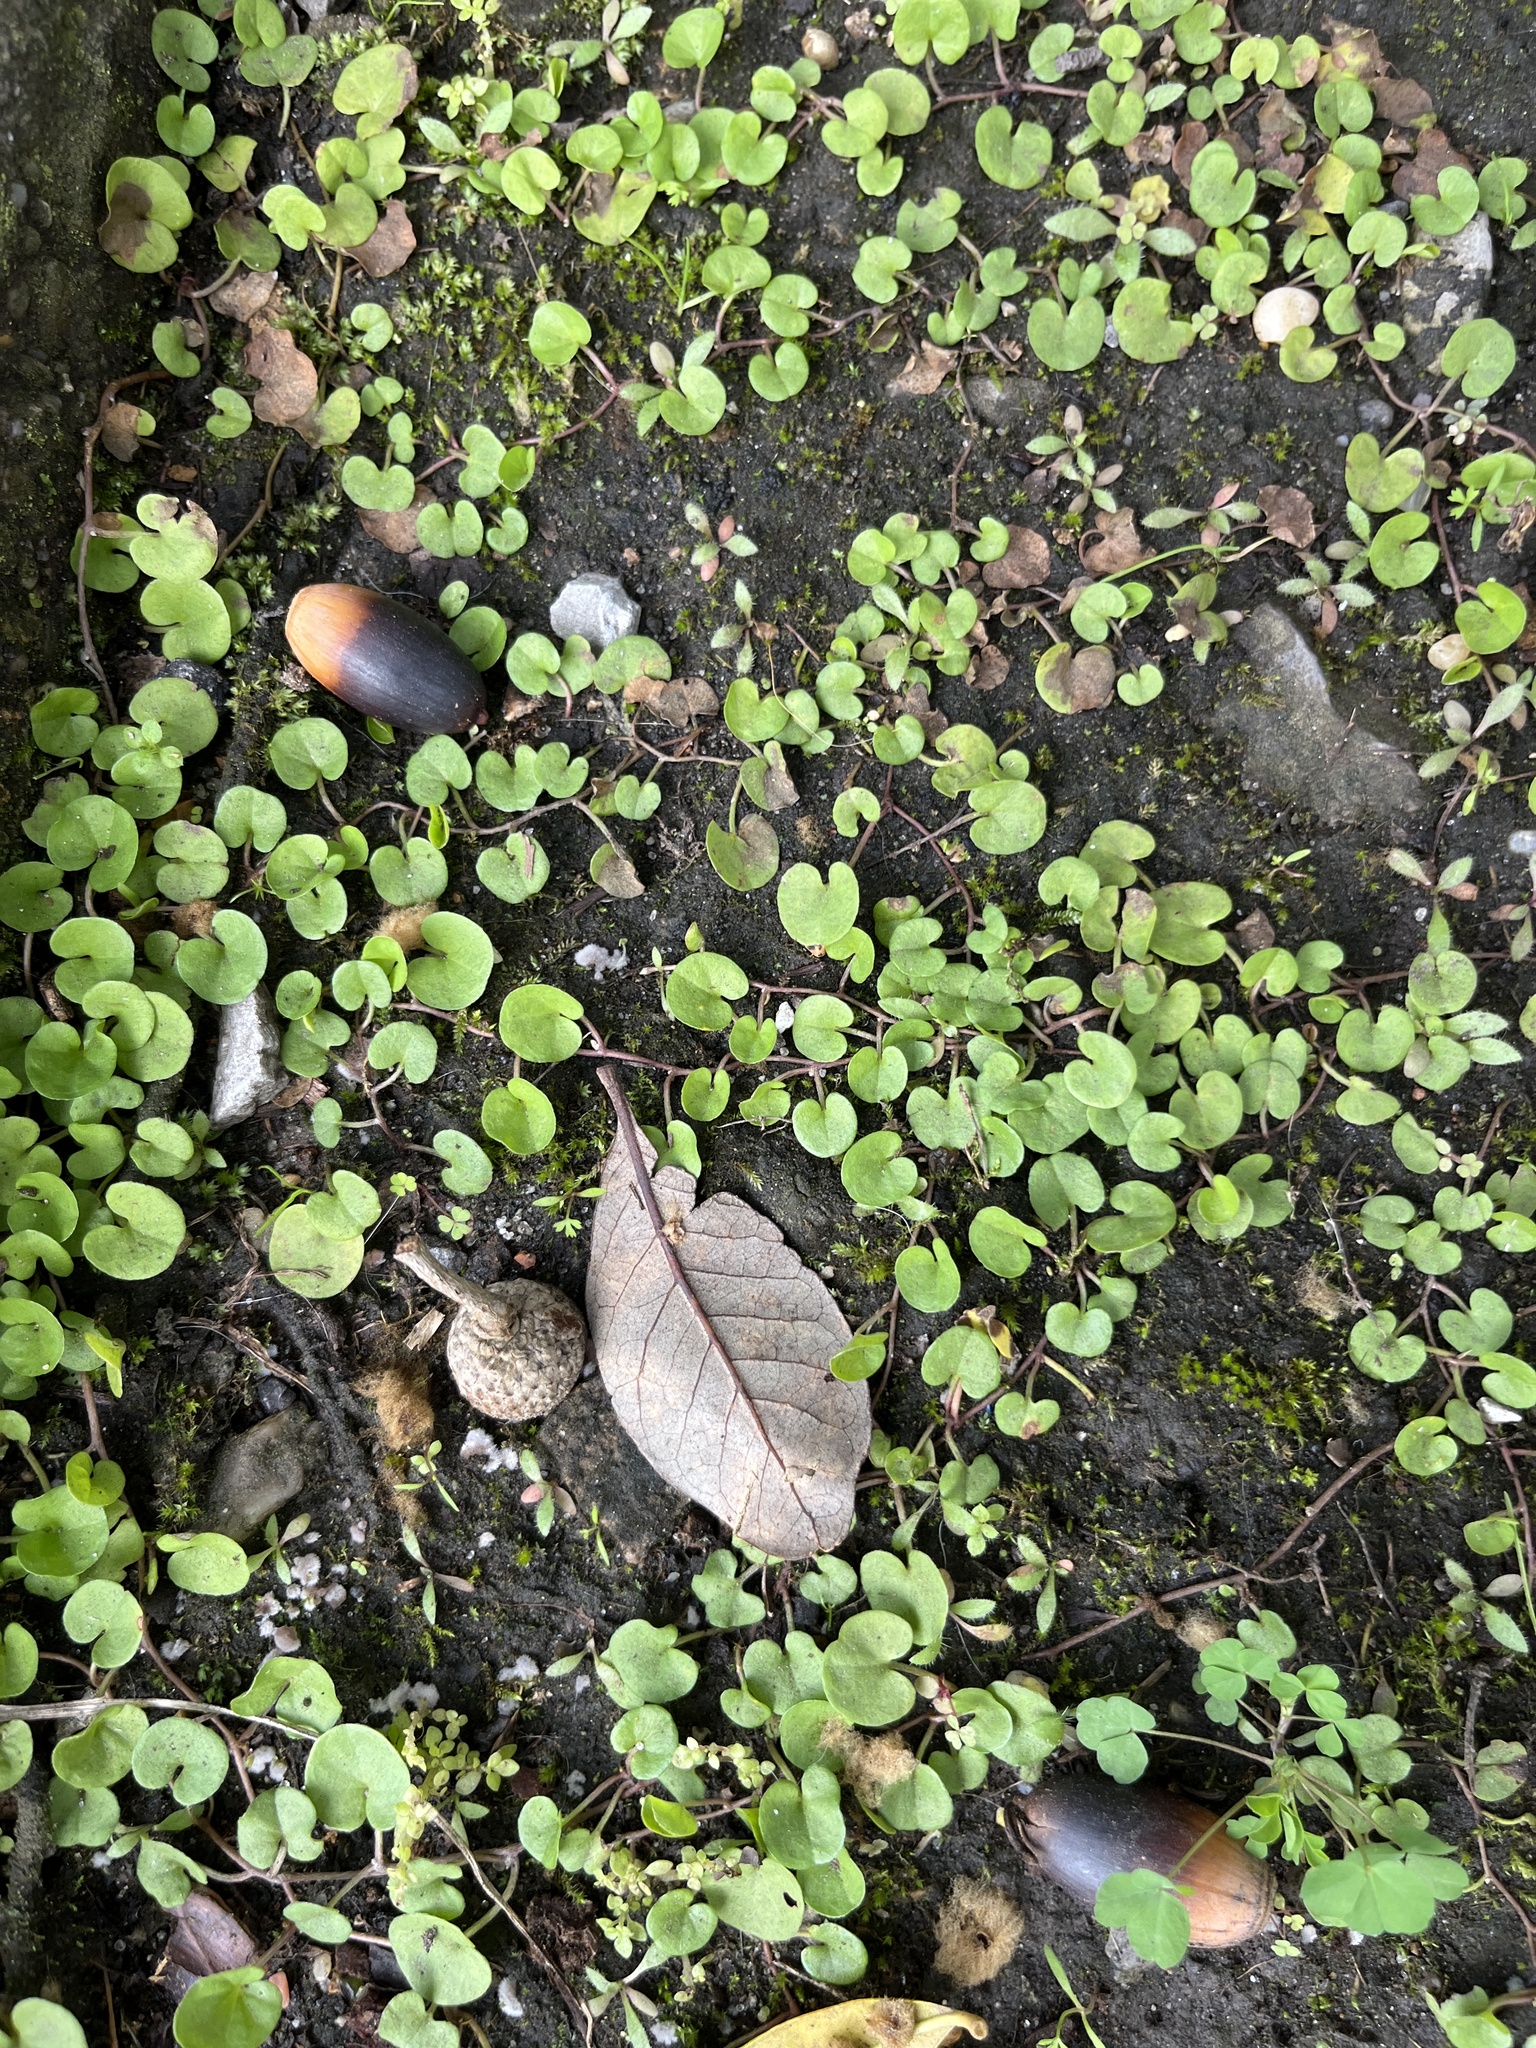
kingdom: Plantae
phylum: Tracheophyta
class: Magnoliopsida
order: Solanales
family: Convolvulaceae
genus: Dichondra
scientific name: Dichondra carolinensis
